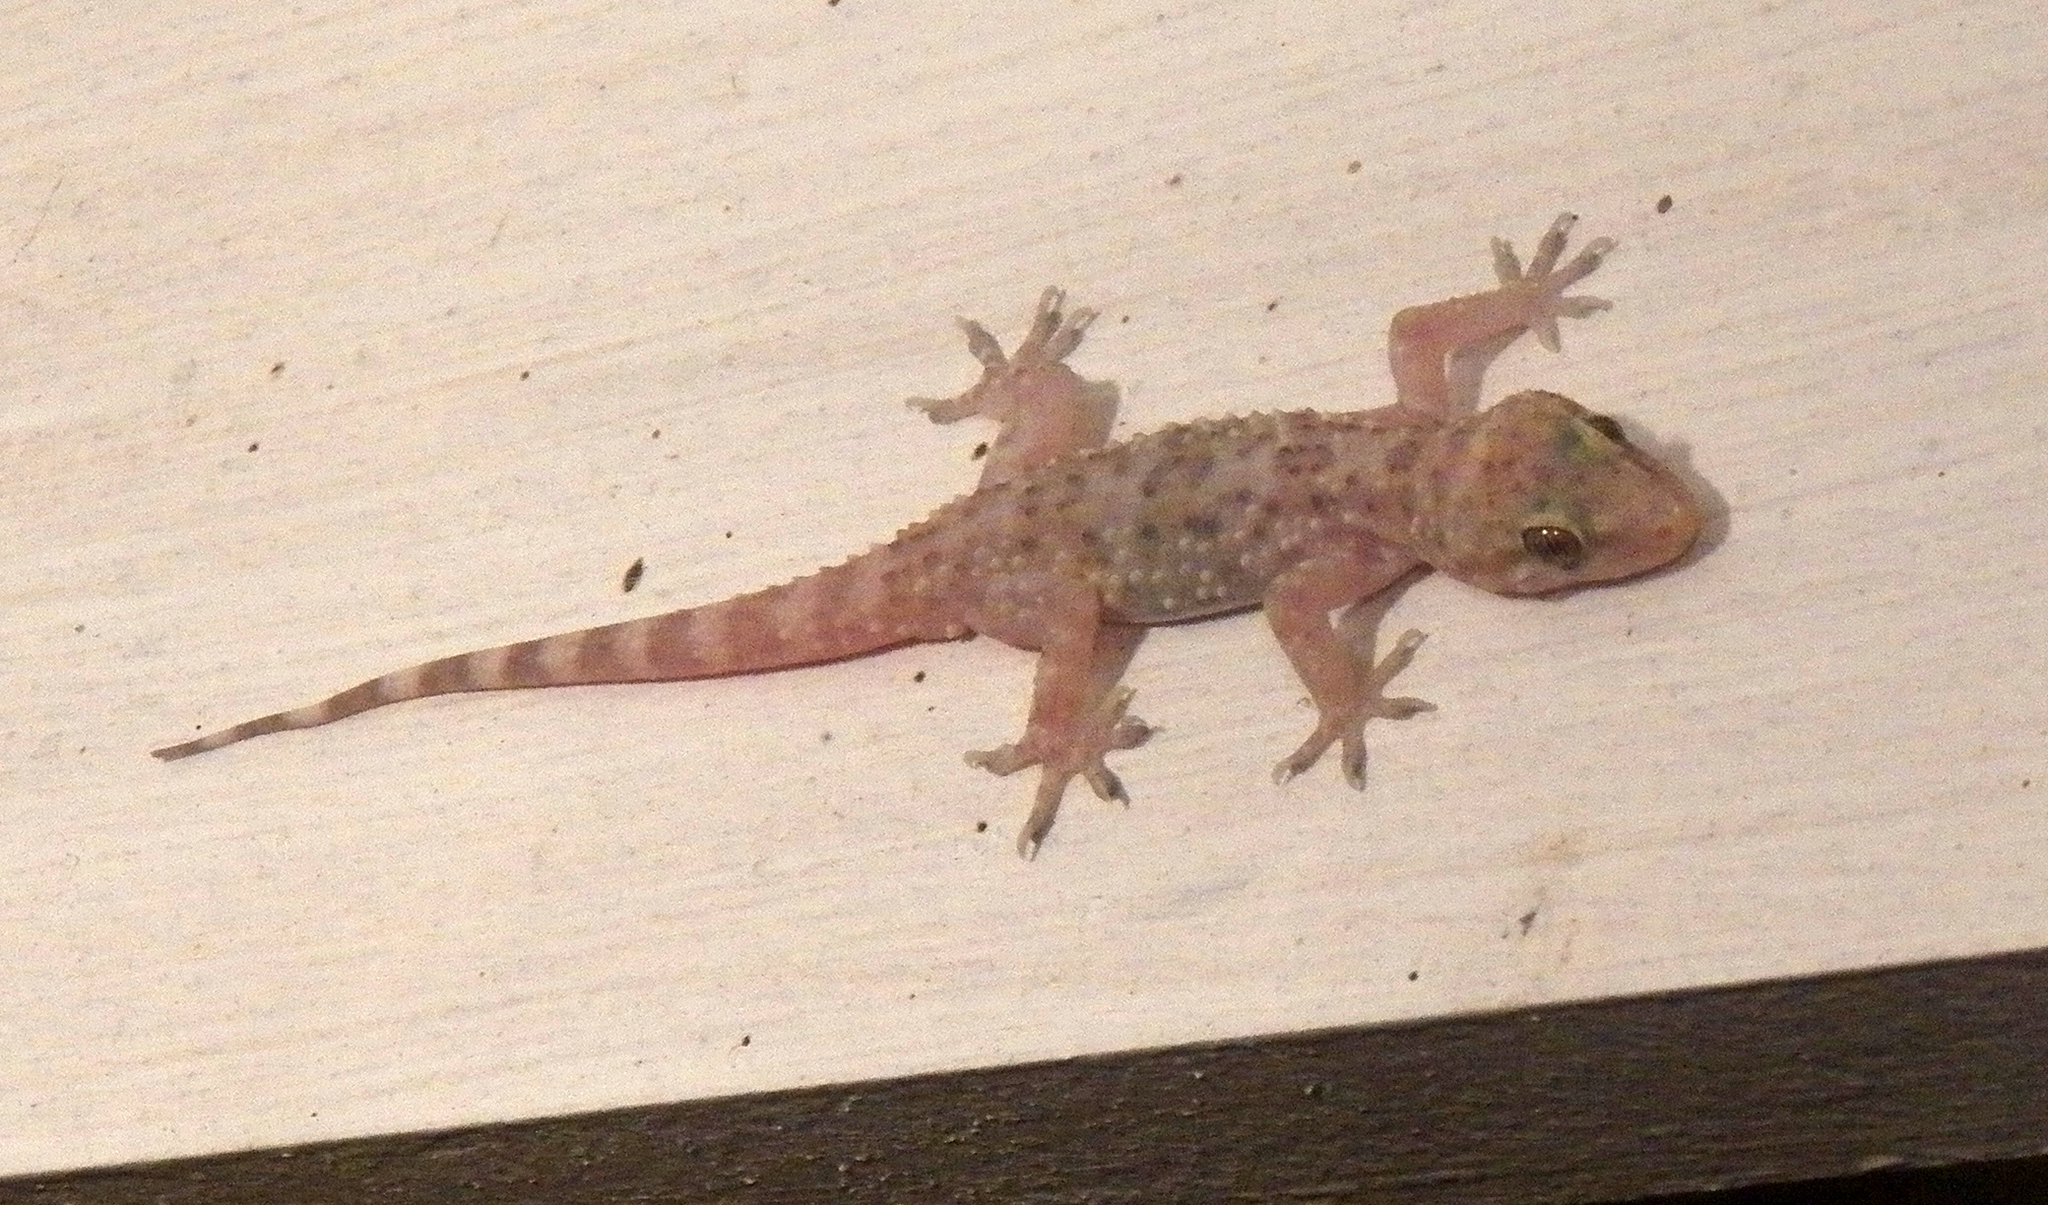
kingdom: Animalia
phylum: Chordata
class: Squamata
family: Gekkonidae
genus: Hemidactylus
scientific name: Hemidactylus turcicus
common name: Turkish gecko
